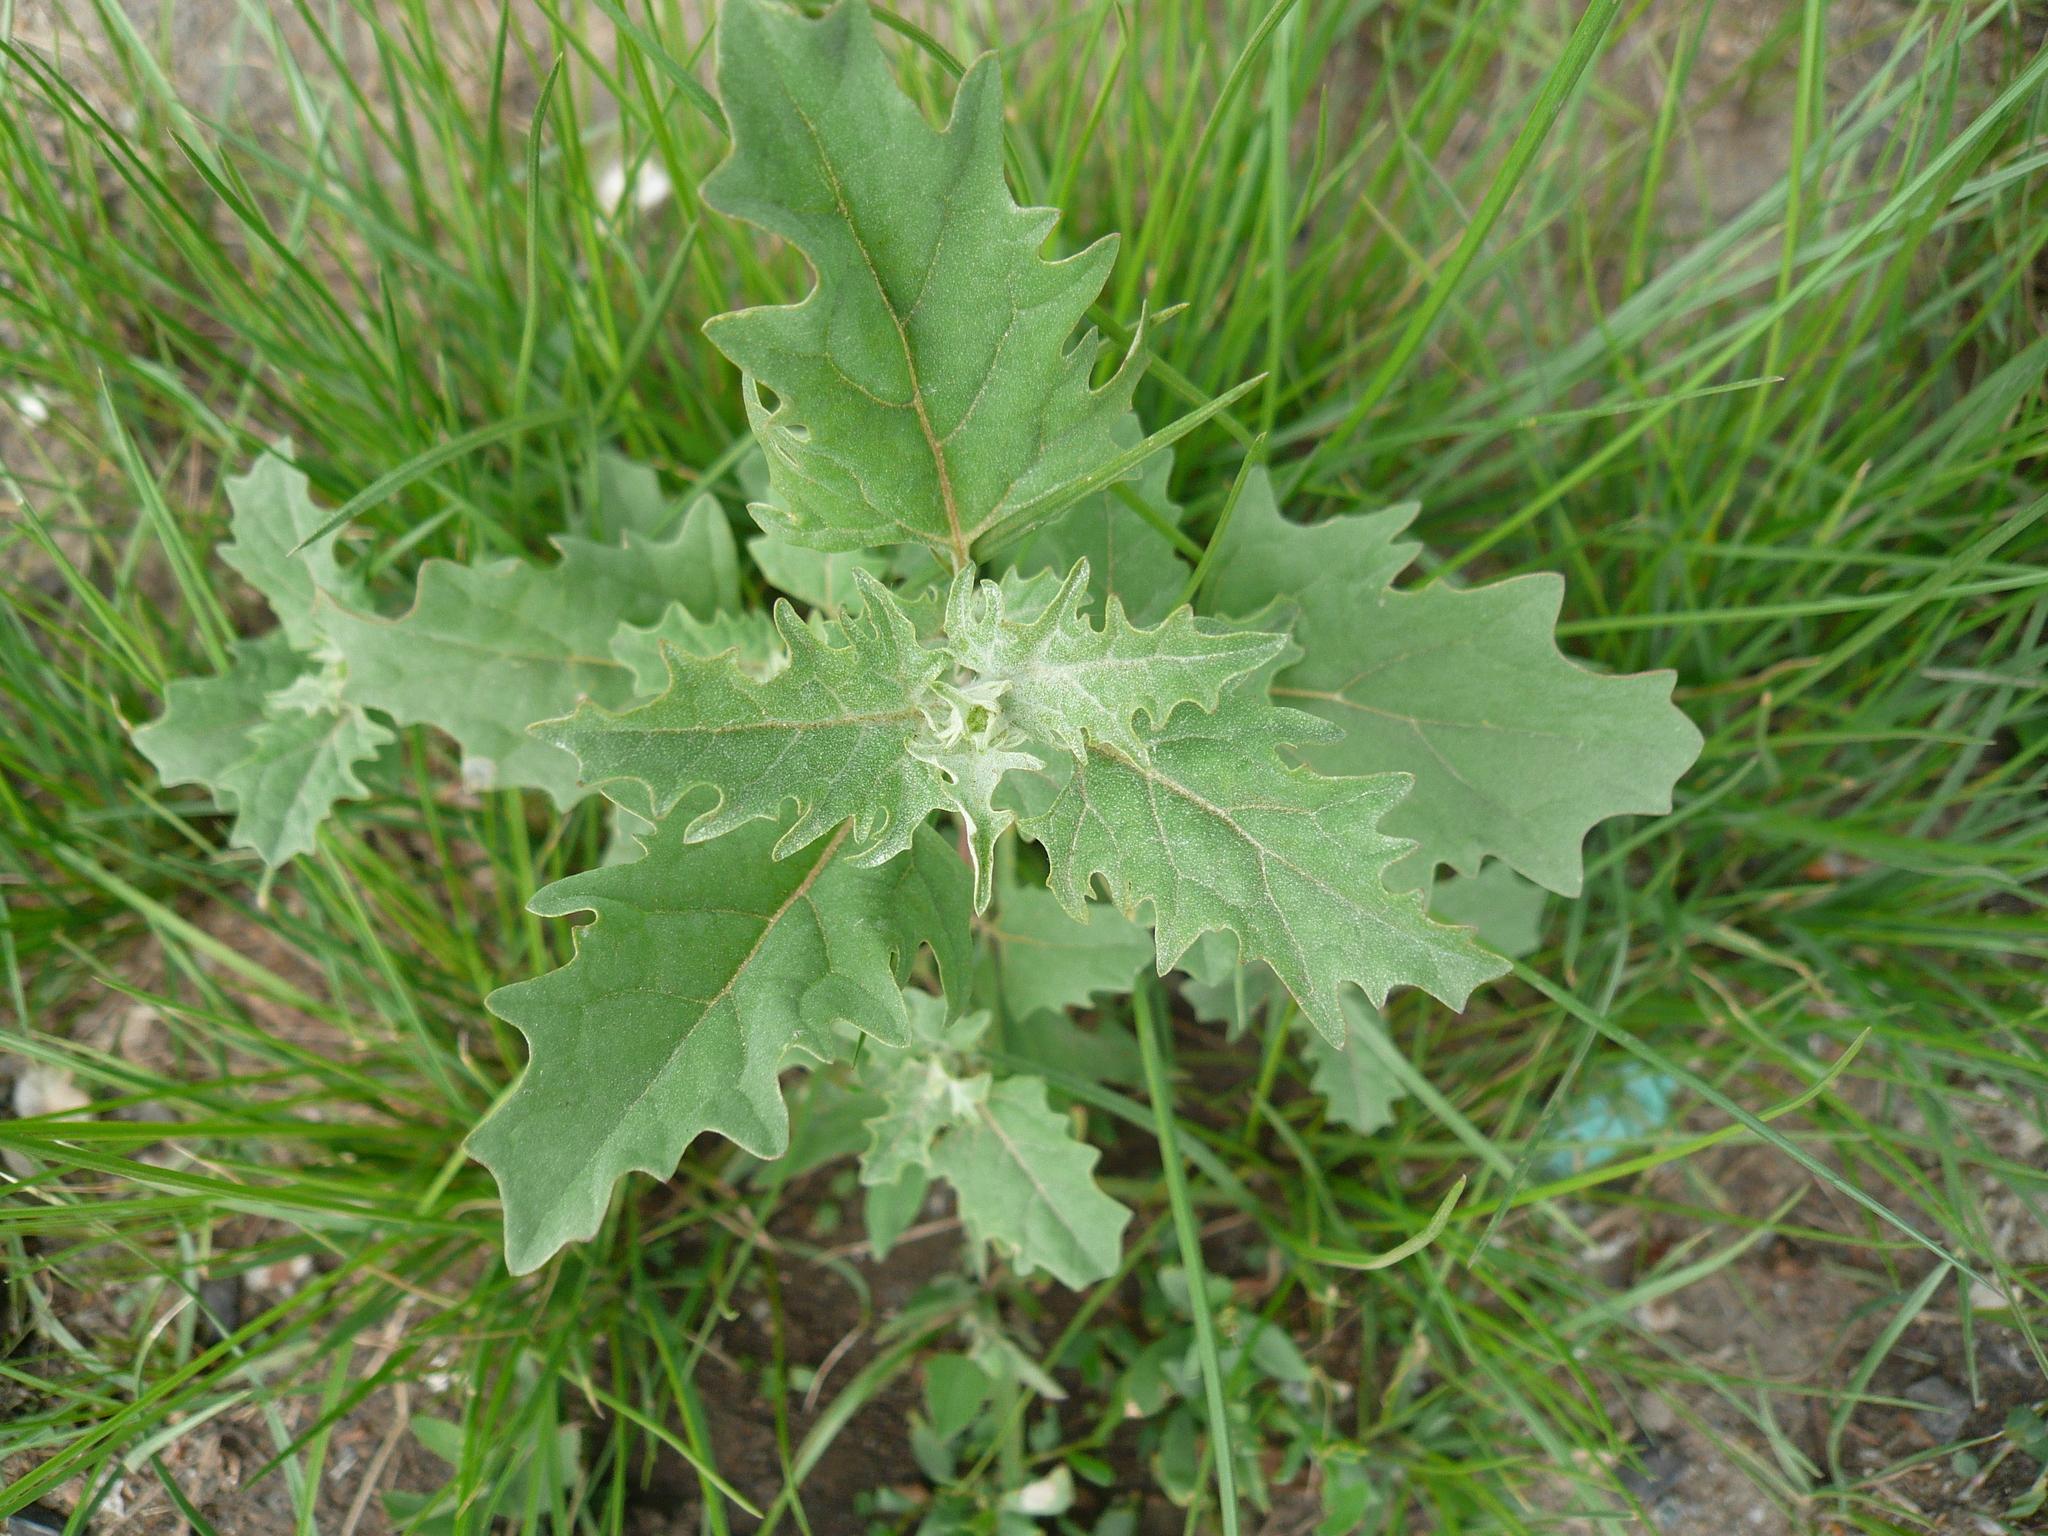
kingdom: Plantae
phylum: Tracheophyta
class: Magnoliopsida
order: Caryophyllales
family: Amaranthaceae
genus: Atriplex
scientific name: Atriplex tatarica
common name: Tatarian orache
